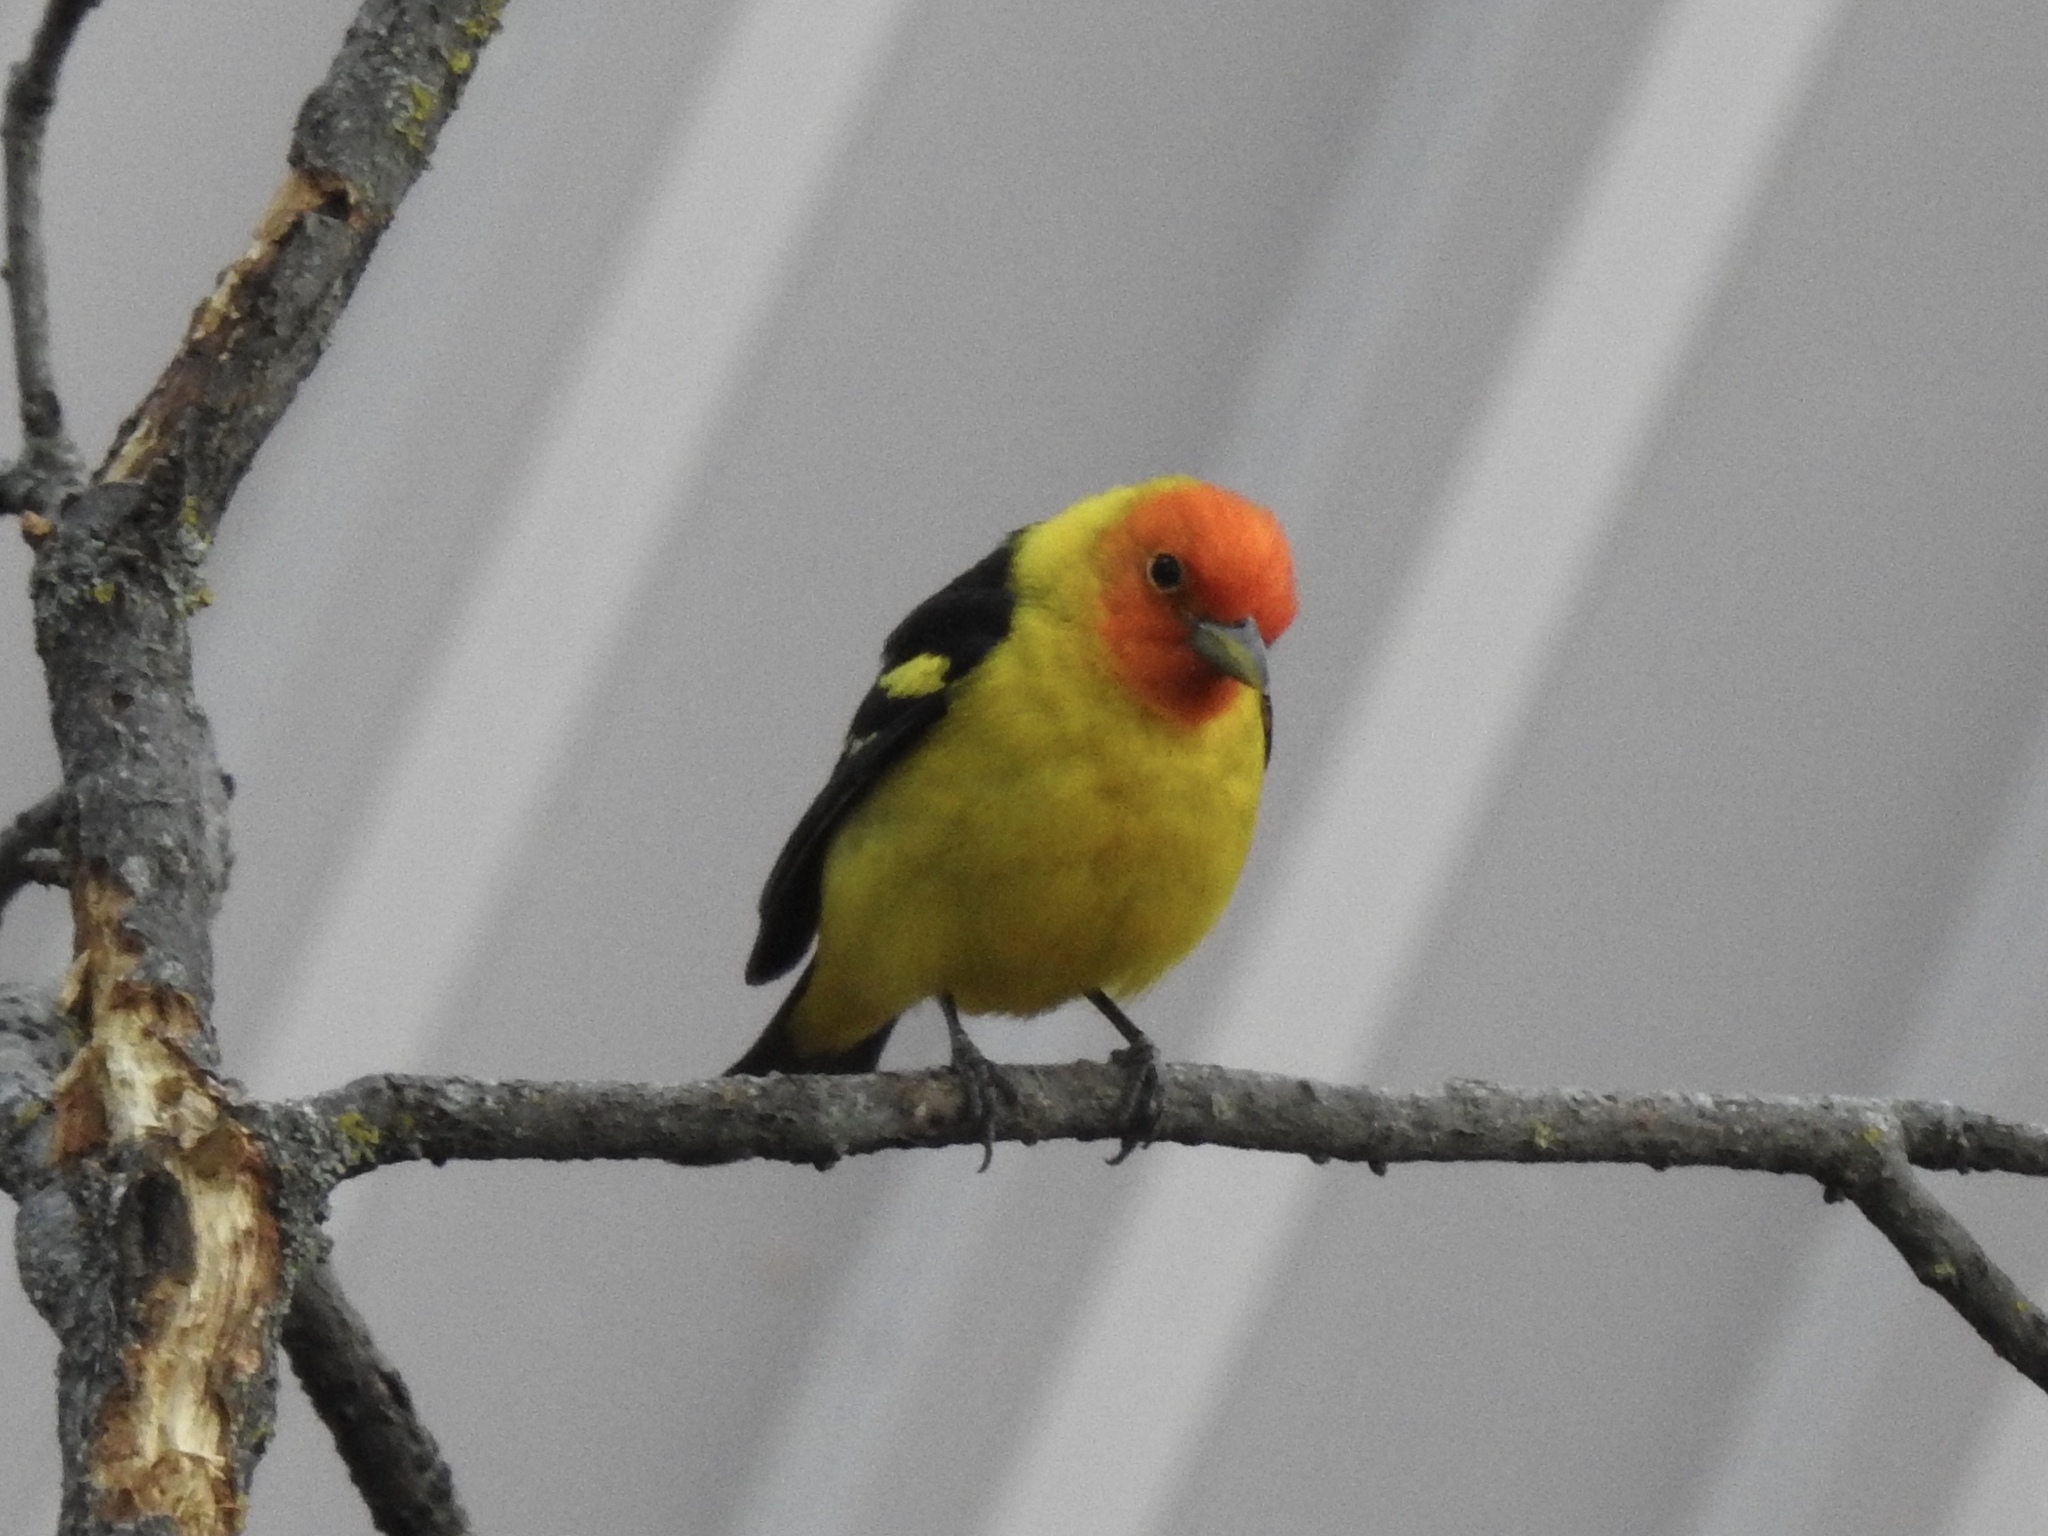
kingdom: Animalia
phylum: Chordata
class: Aves
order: Passeriformes
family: Cardinalidae
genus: Piranga
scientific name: Piranga ludoviciana
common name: Western tanager
